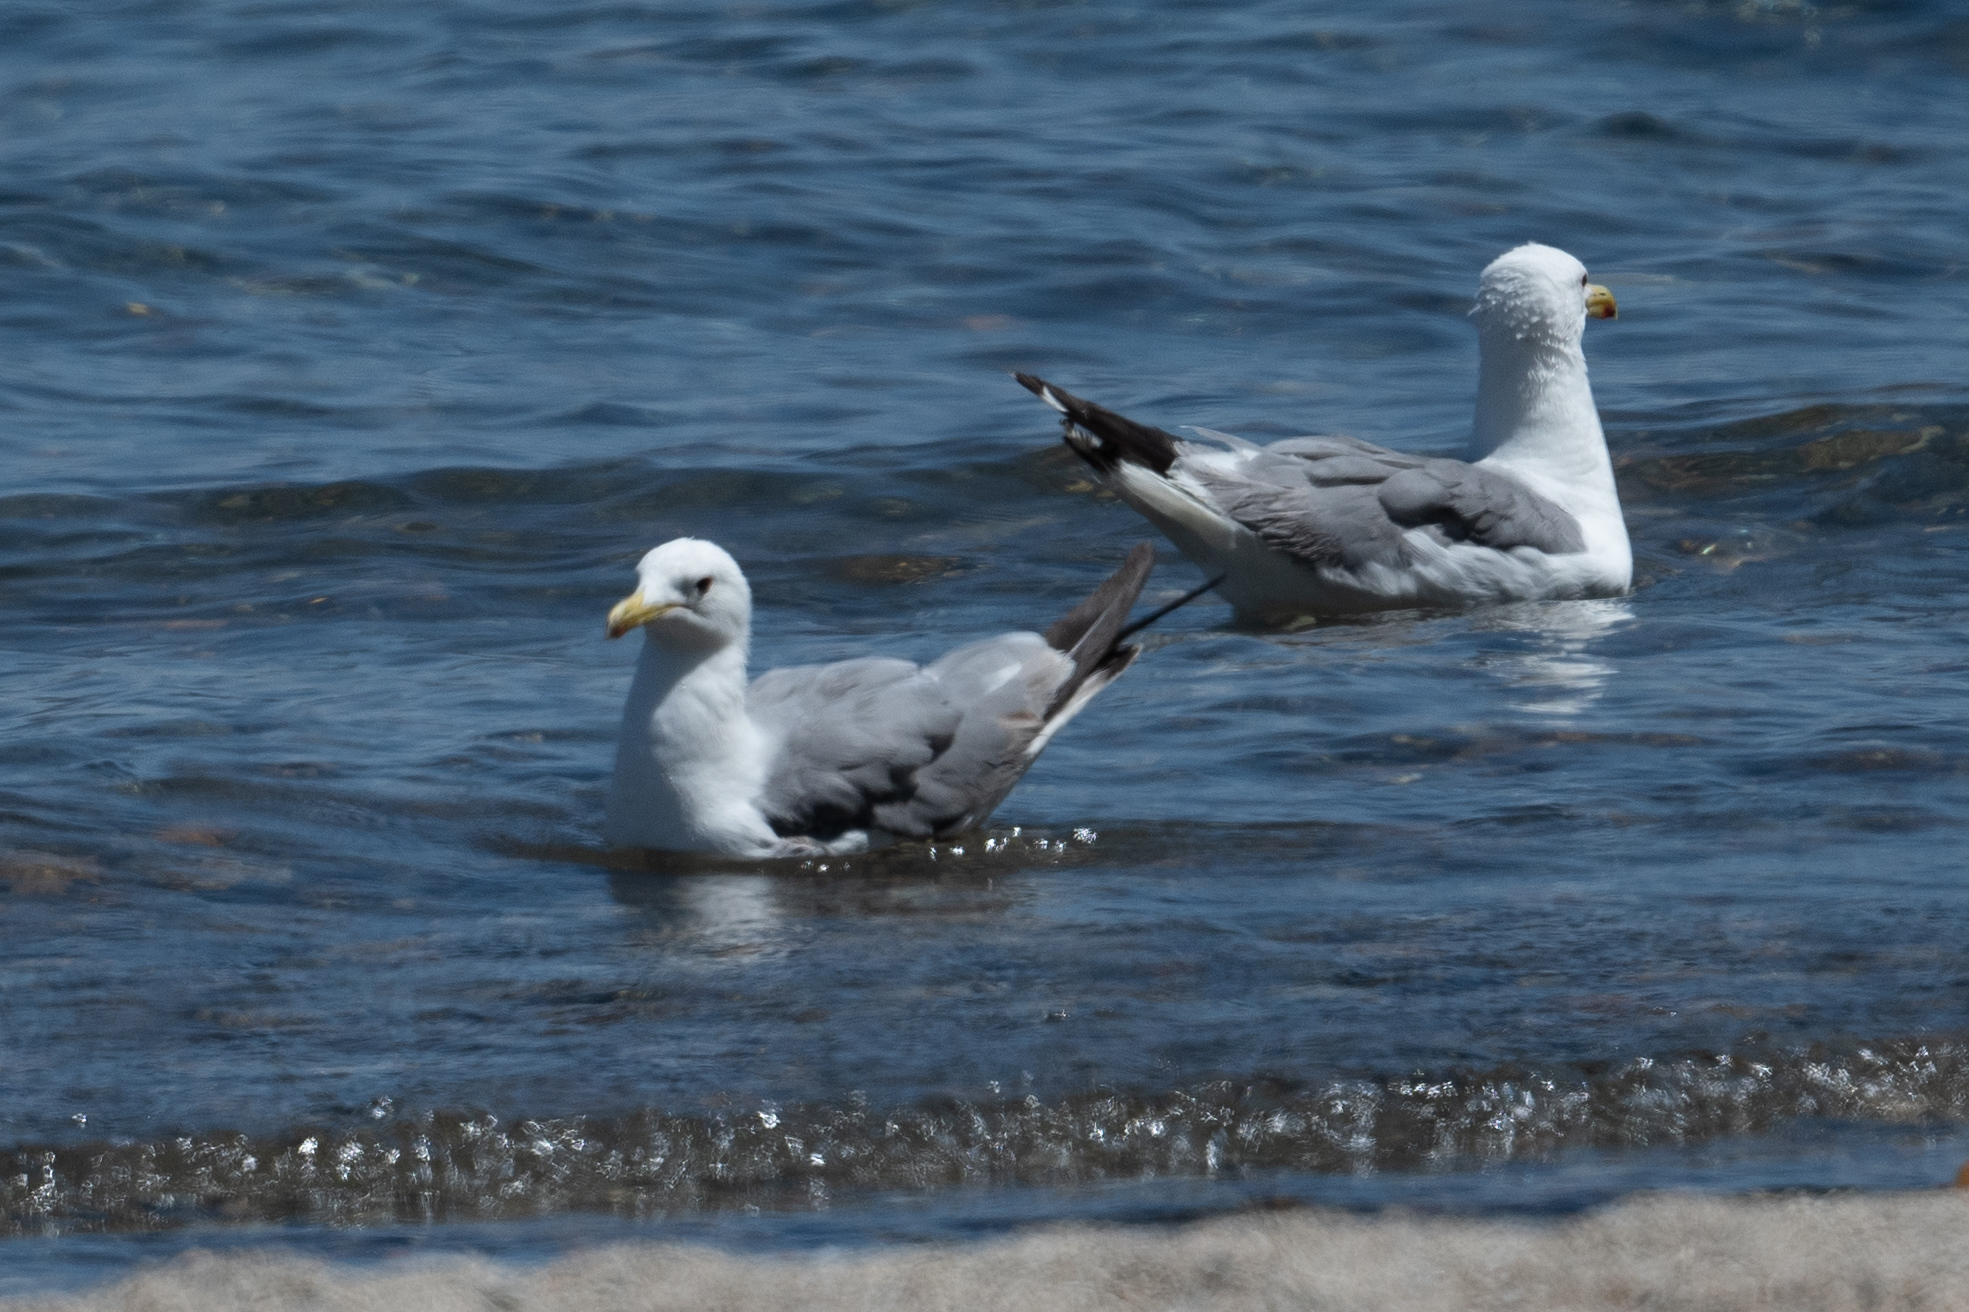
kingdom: Animalia
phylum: Chordata
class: Aves
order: Charadriiformes
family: Laridae
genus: Larus
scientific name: Larus californicus
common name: California gull
